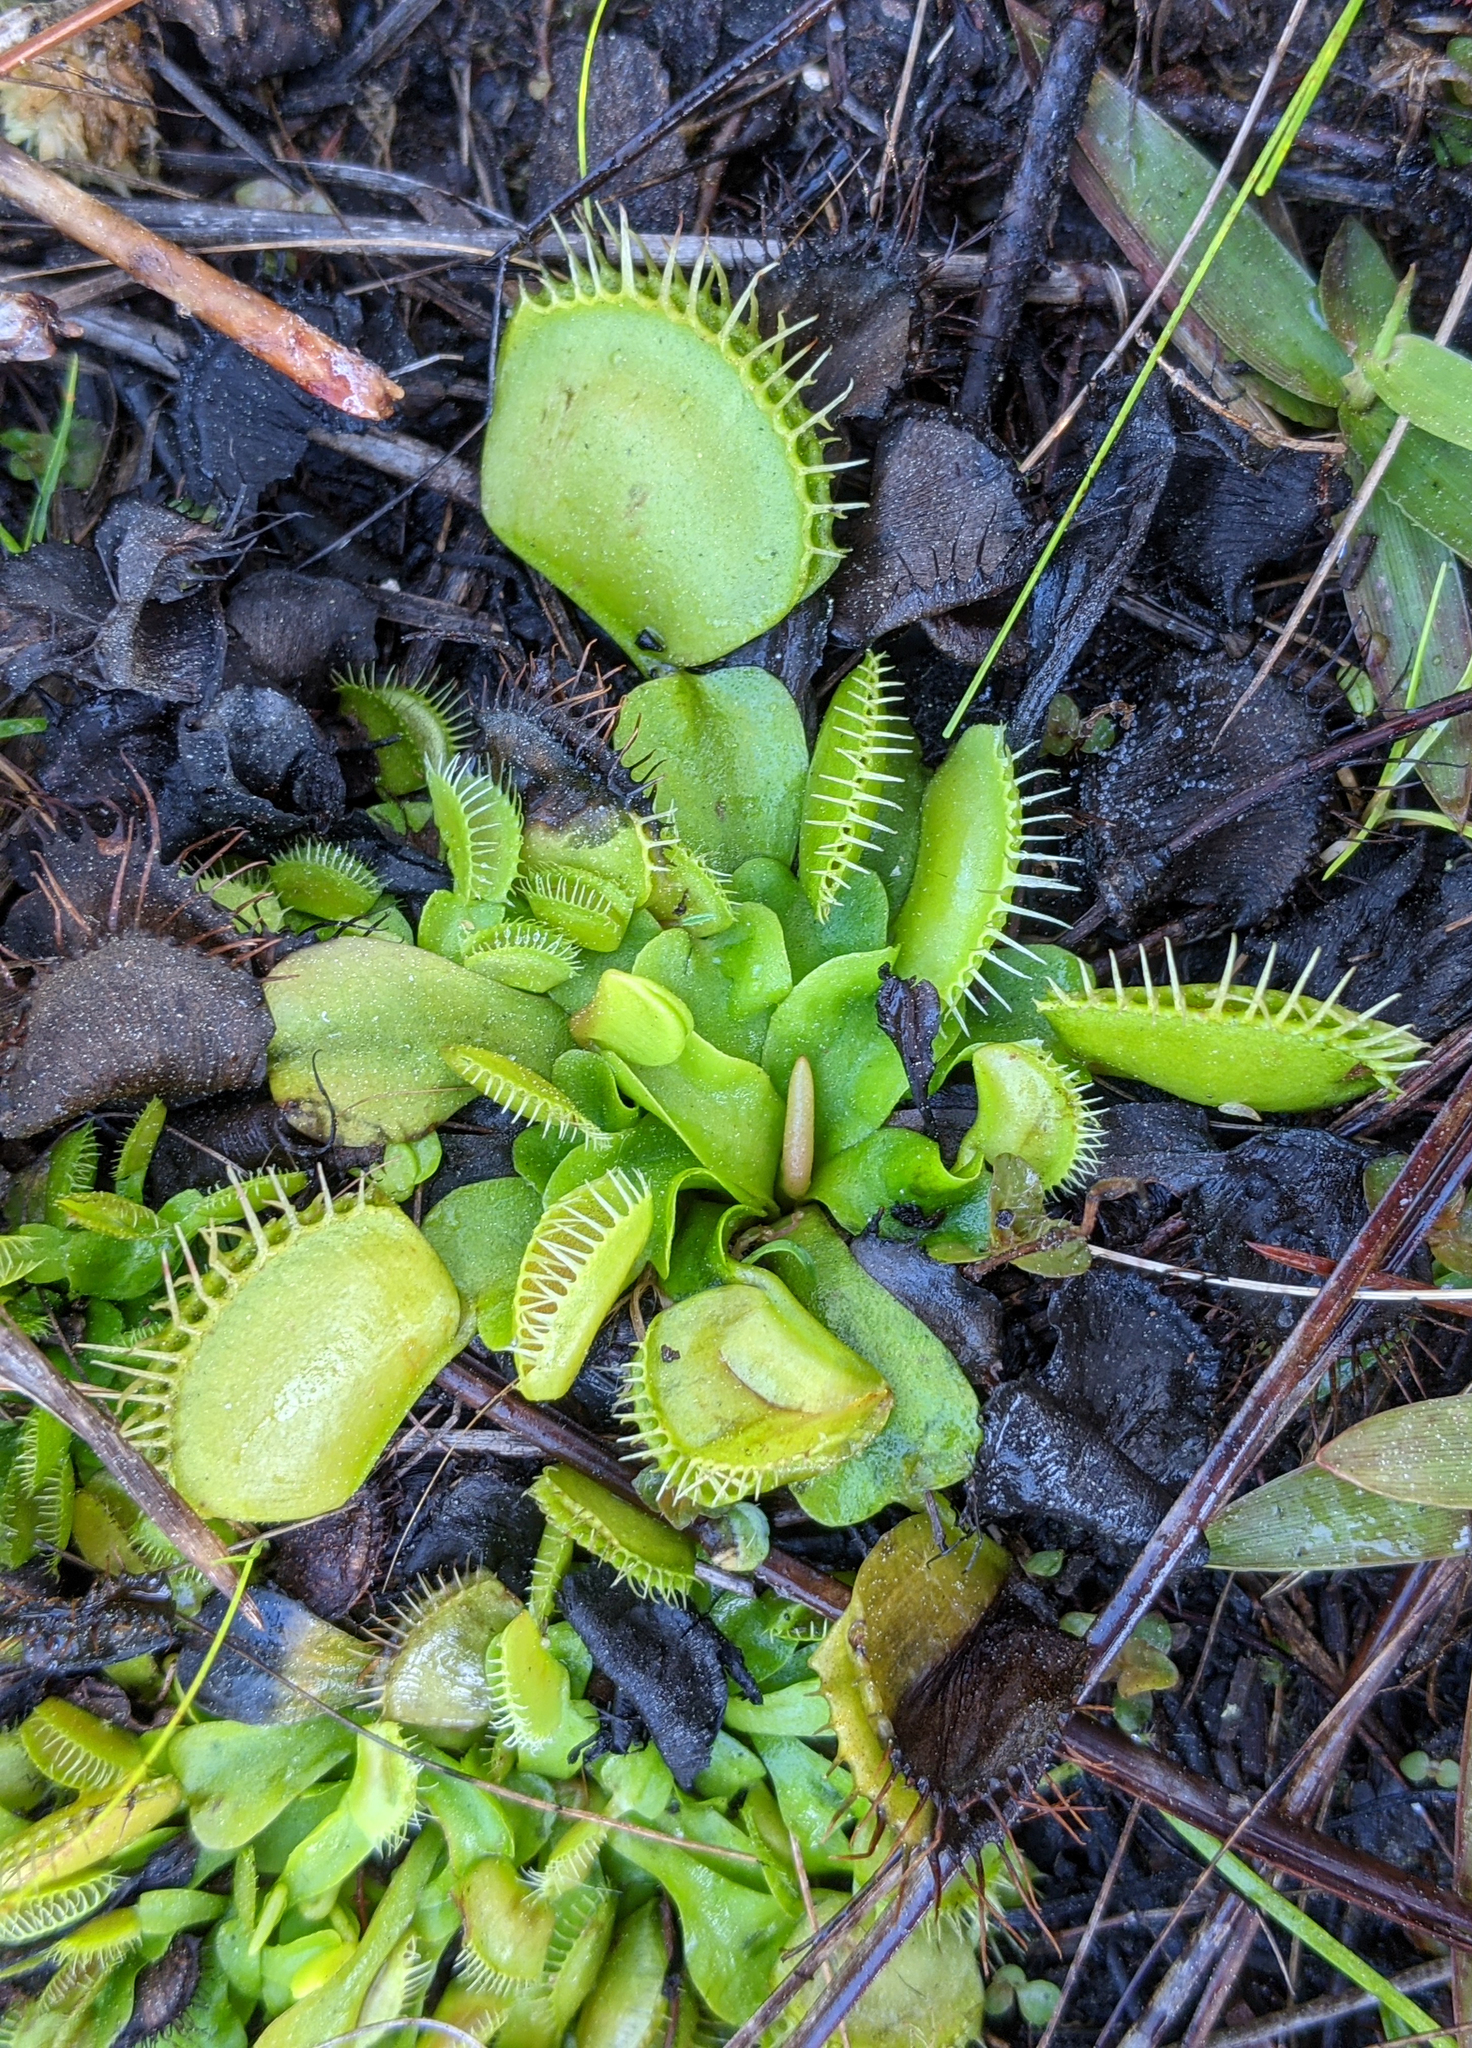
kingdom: Plantae
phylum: Tracheophyta
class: Magnoliopsida
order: Caryophyllales
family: Droseraceae
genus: Dionaea
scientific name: Dionaea muscipula
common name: Venus flytrap
